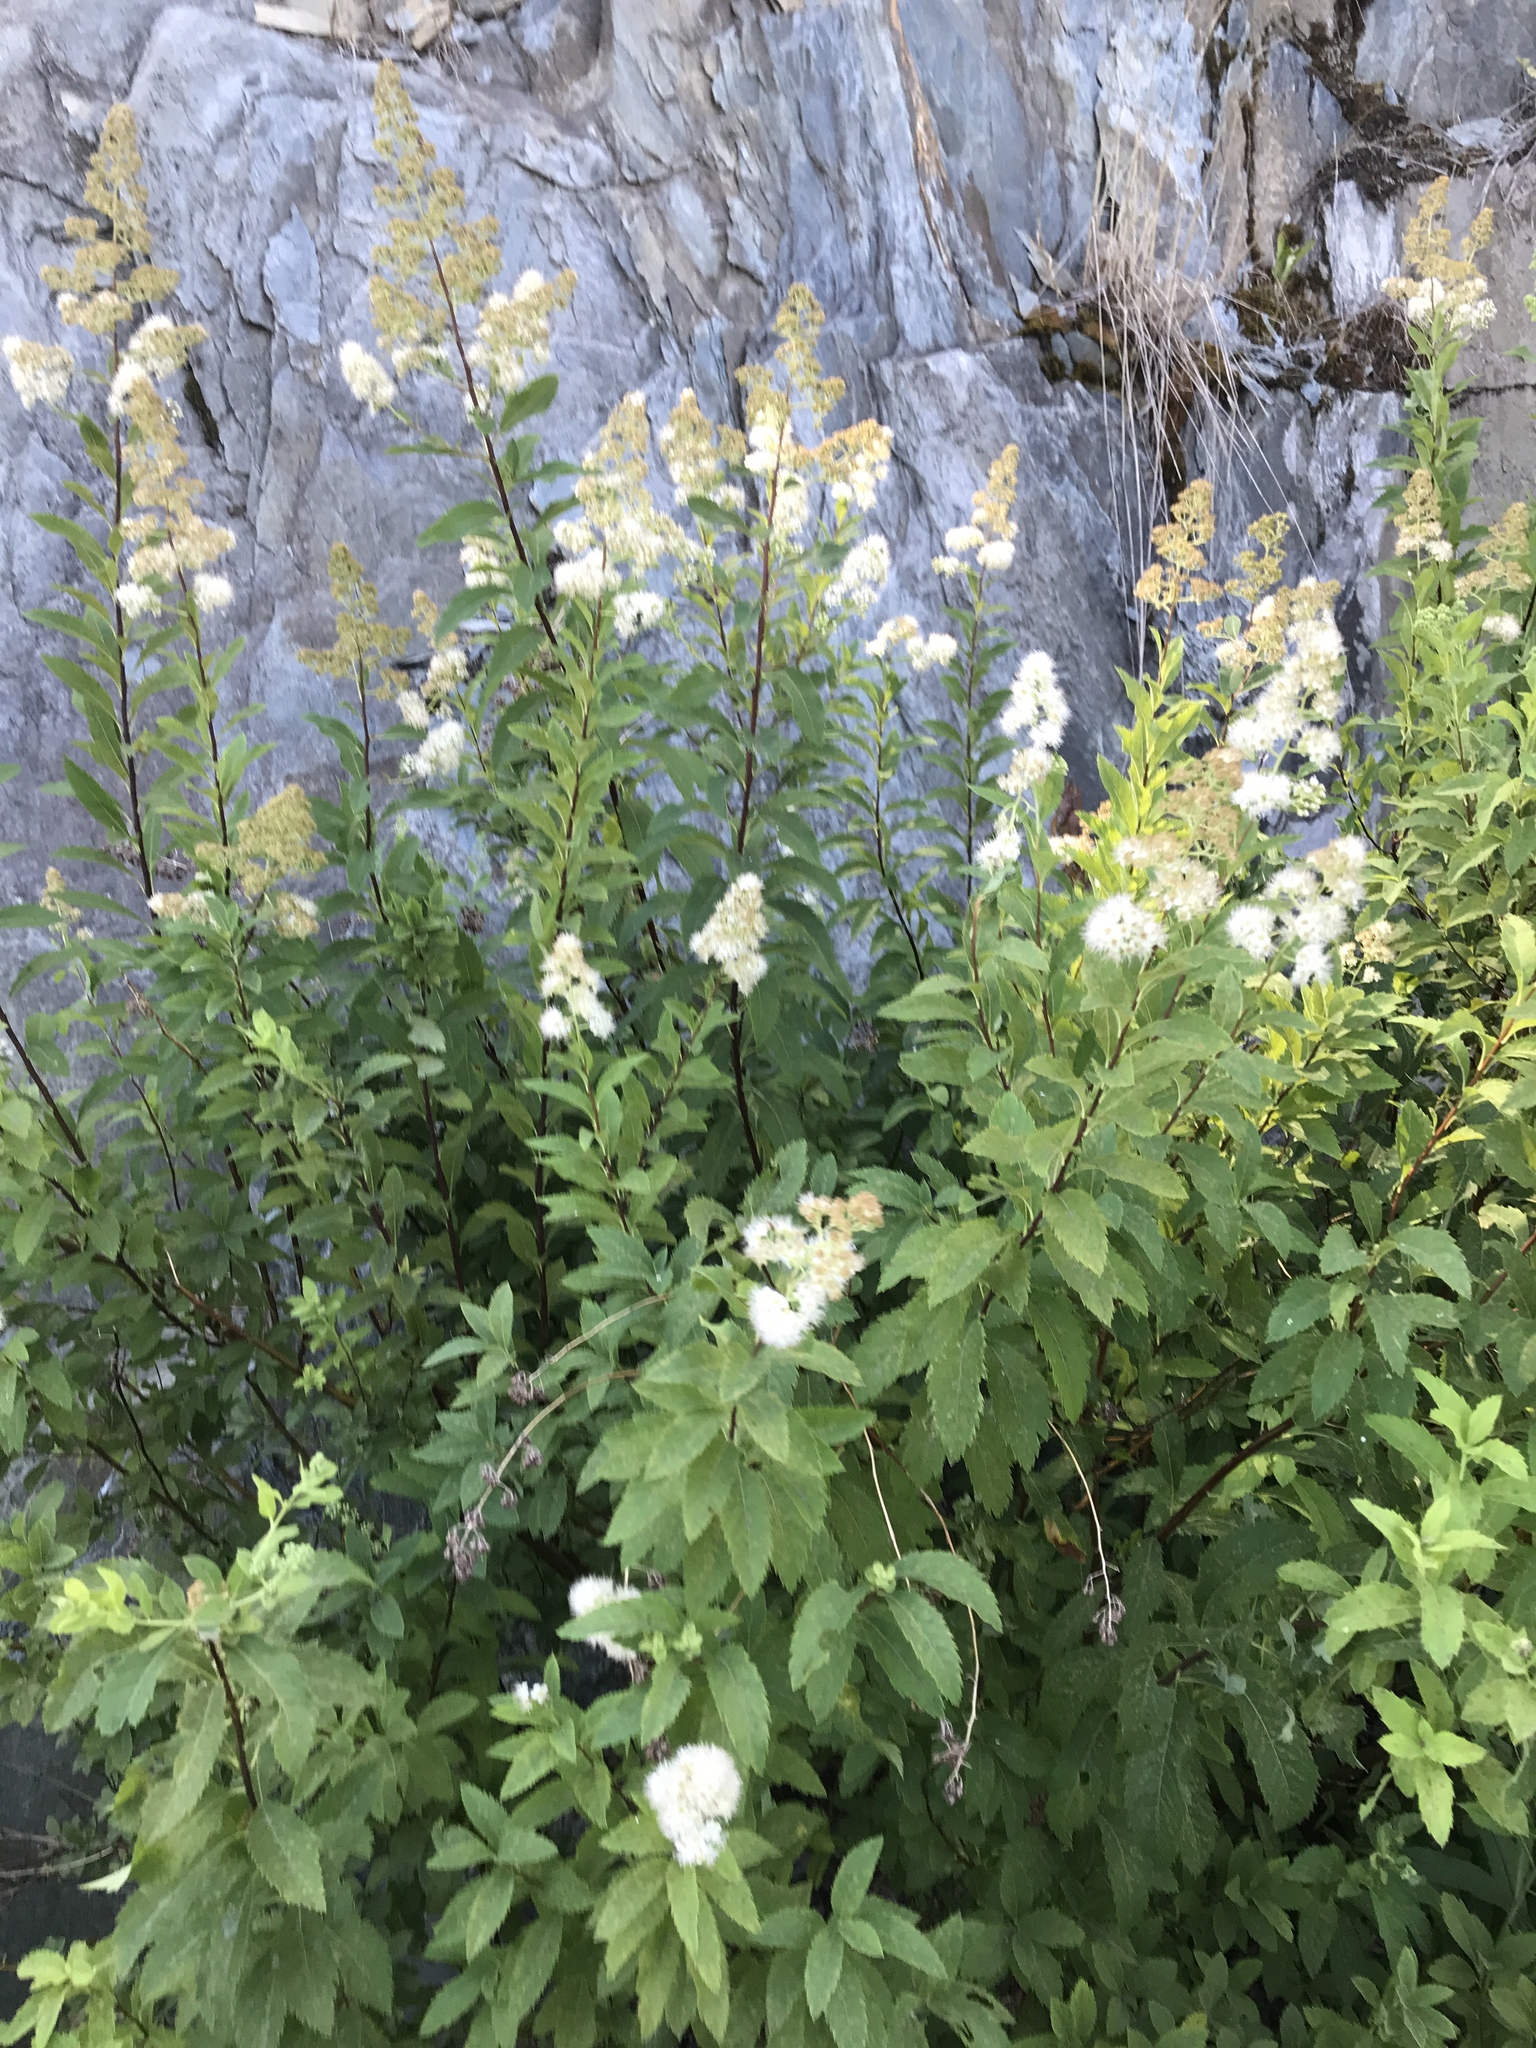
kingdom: Plantae
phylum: Tracheophyta
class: Magnoliopsida
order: Rosales
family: Rosaceae
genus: Spiraea
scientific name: Spiraea alba
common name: Pale bridewort
